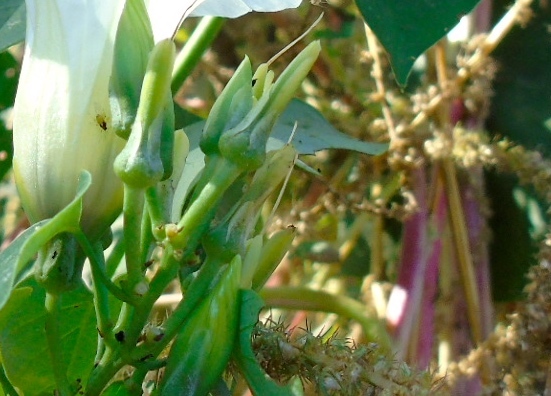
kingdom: Plantae
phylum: Tracheophyta
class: Magnoliopsida
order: Solanales
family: Convolvulaceae
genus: Ipomoea
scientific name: Ipomoea corymbosa
